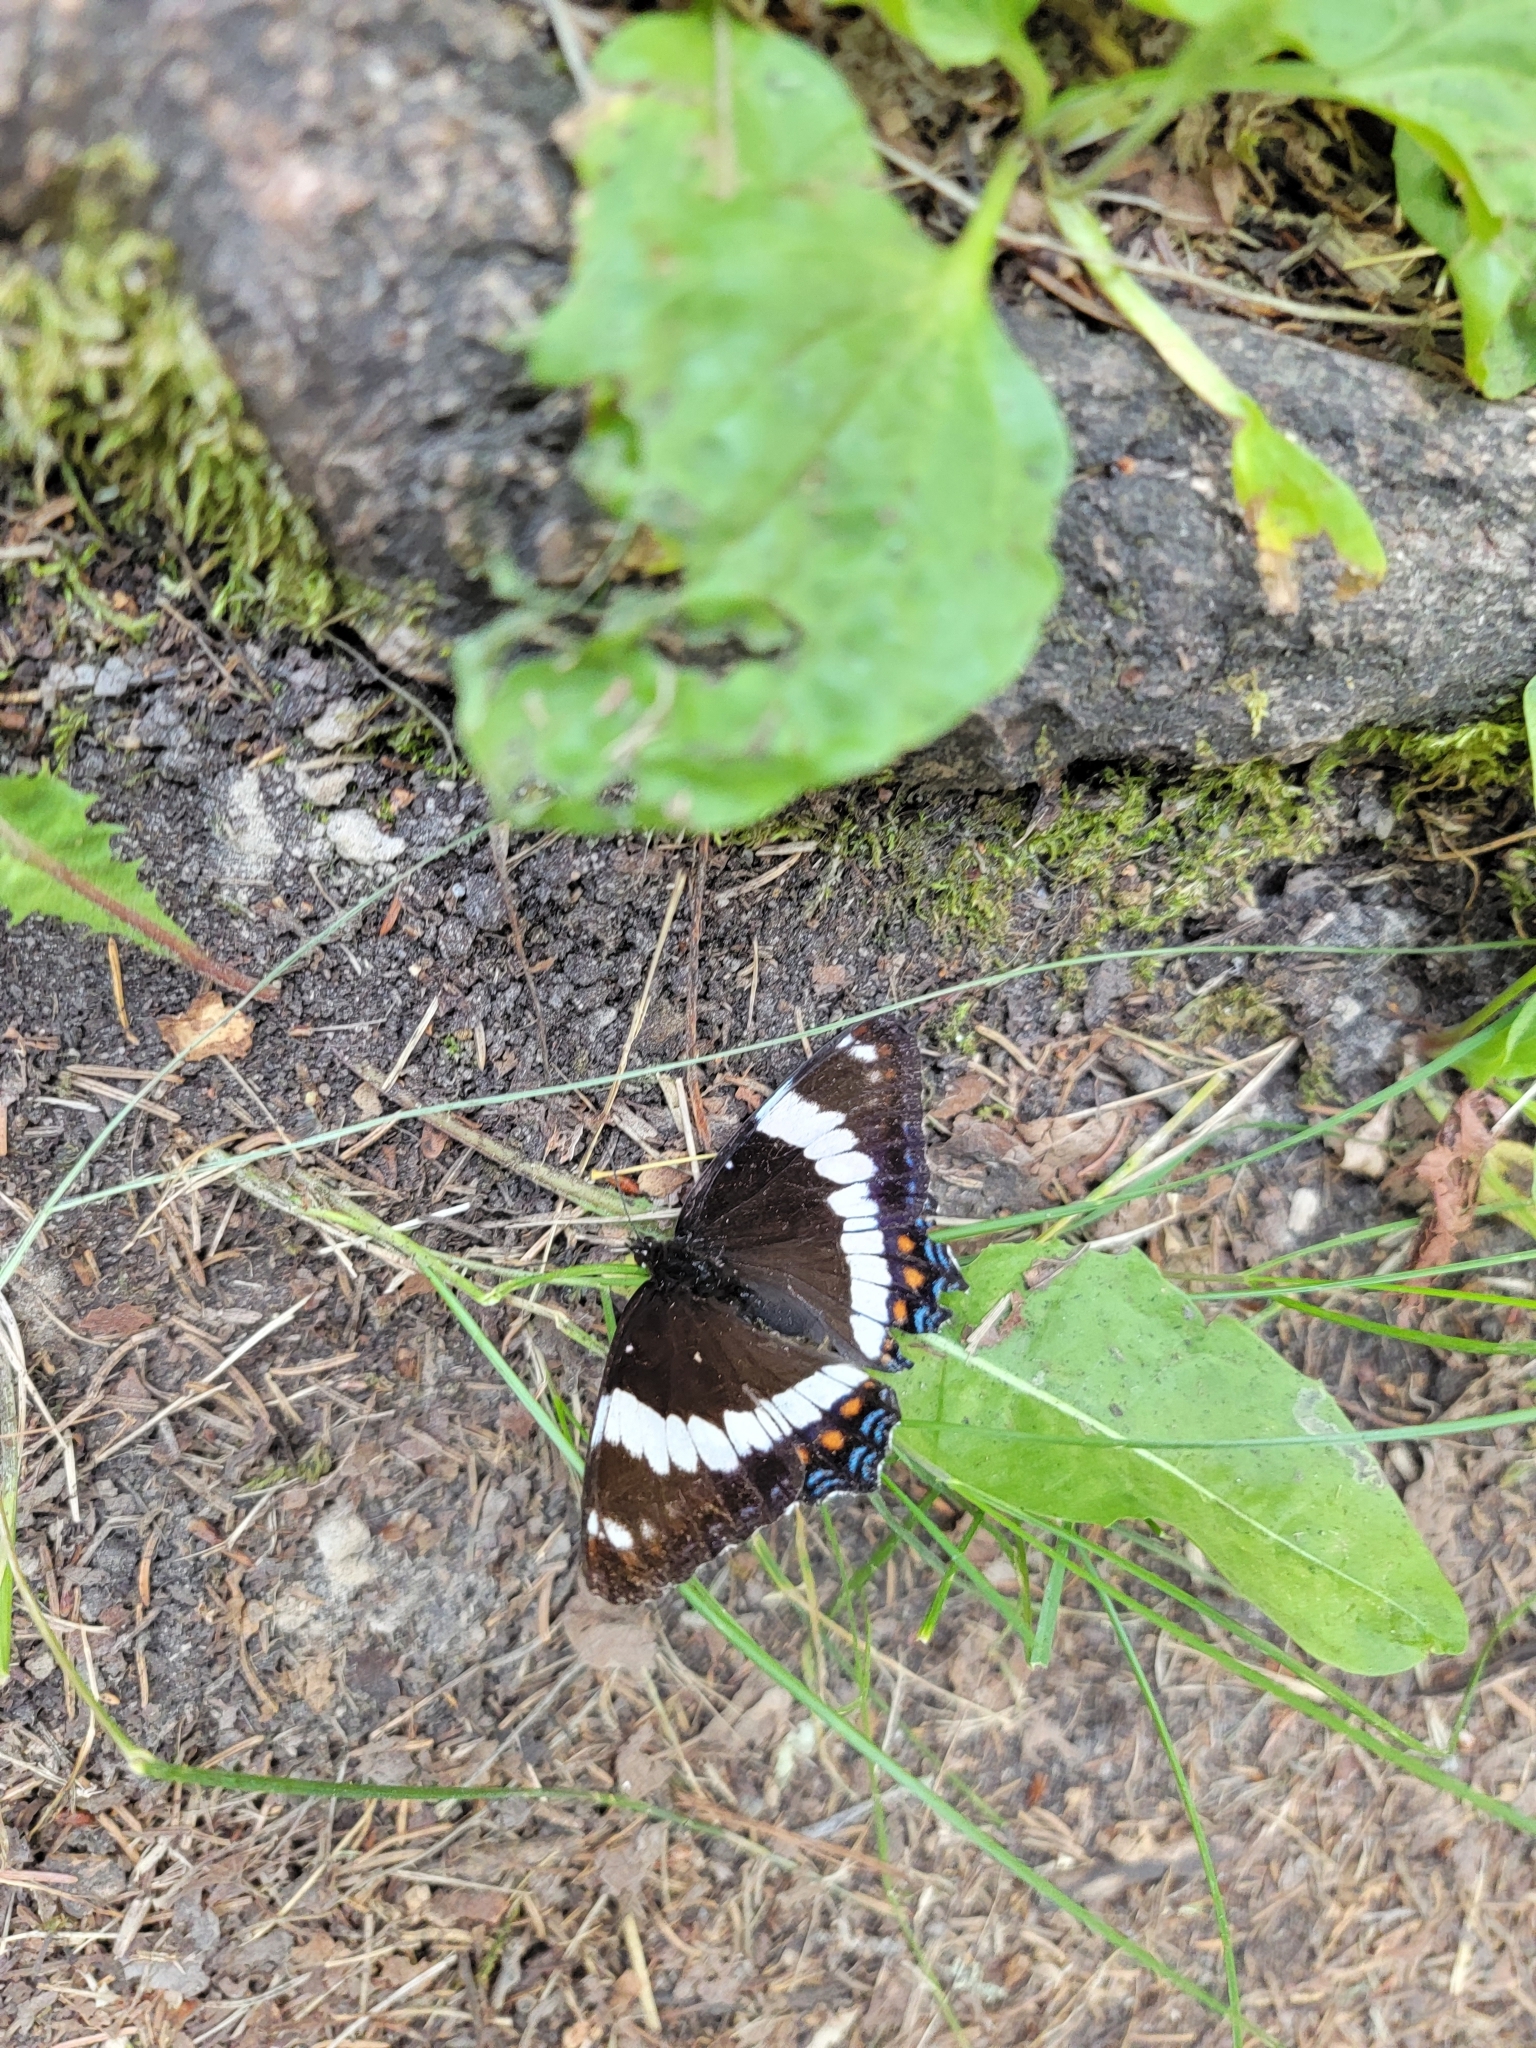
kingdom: Animalia
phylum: Arthropoda
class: Insecta
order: Lepidoptera
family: Nymphalidae
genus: Limenitis
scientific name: Limenitis arthemis
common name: Red-spotted admiral
